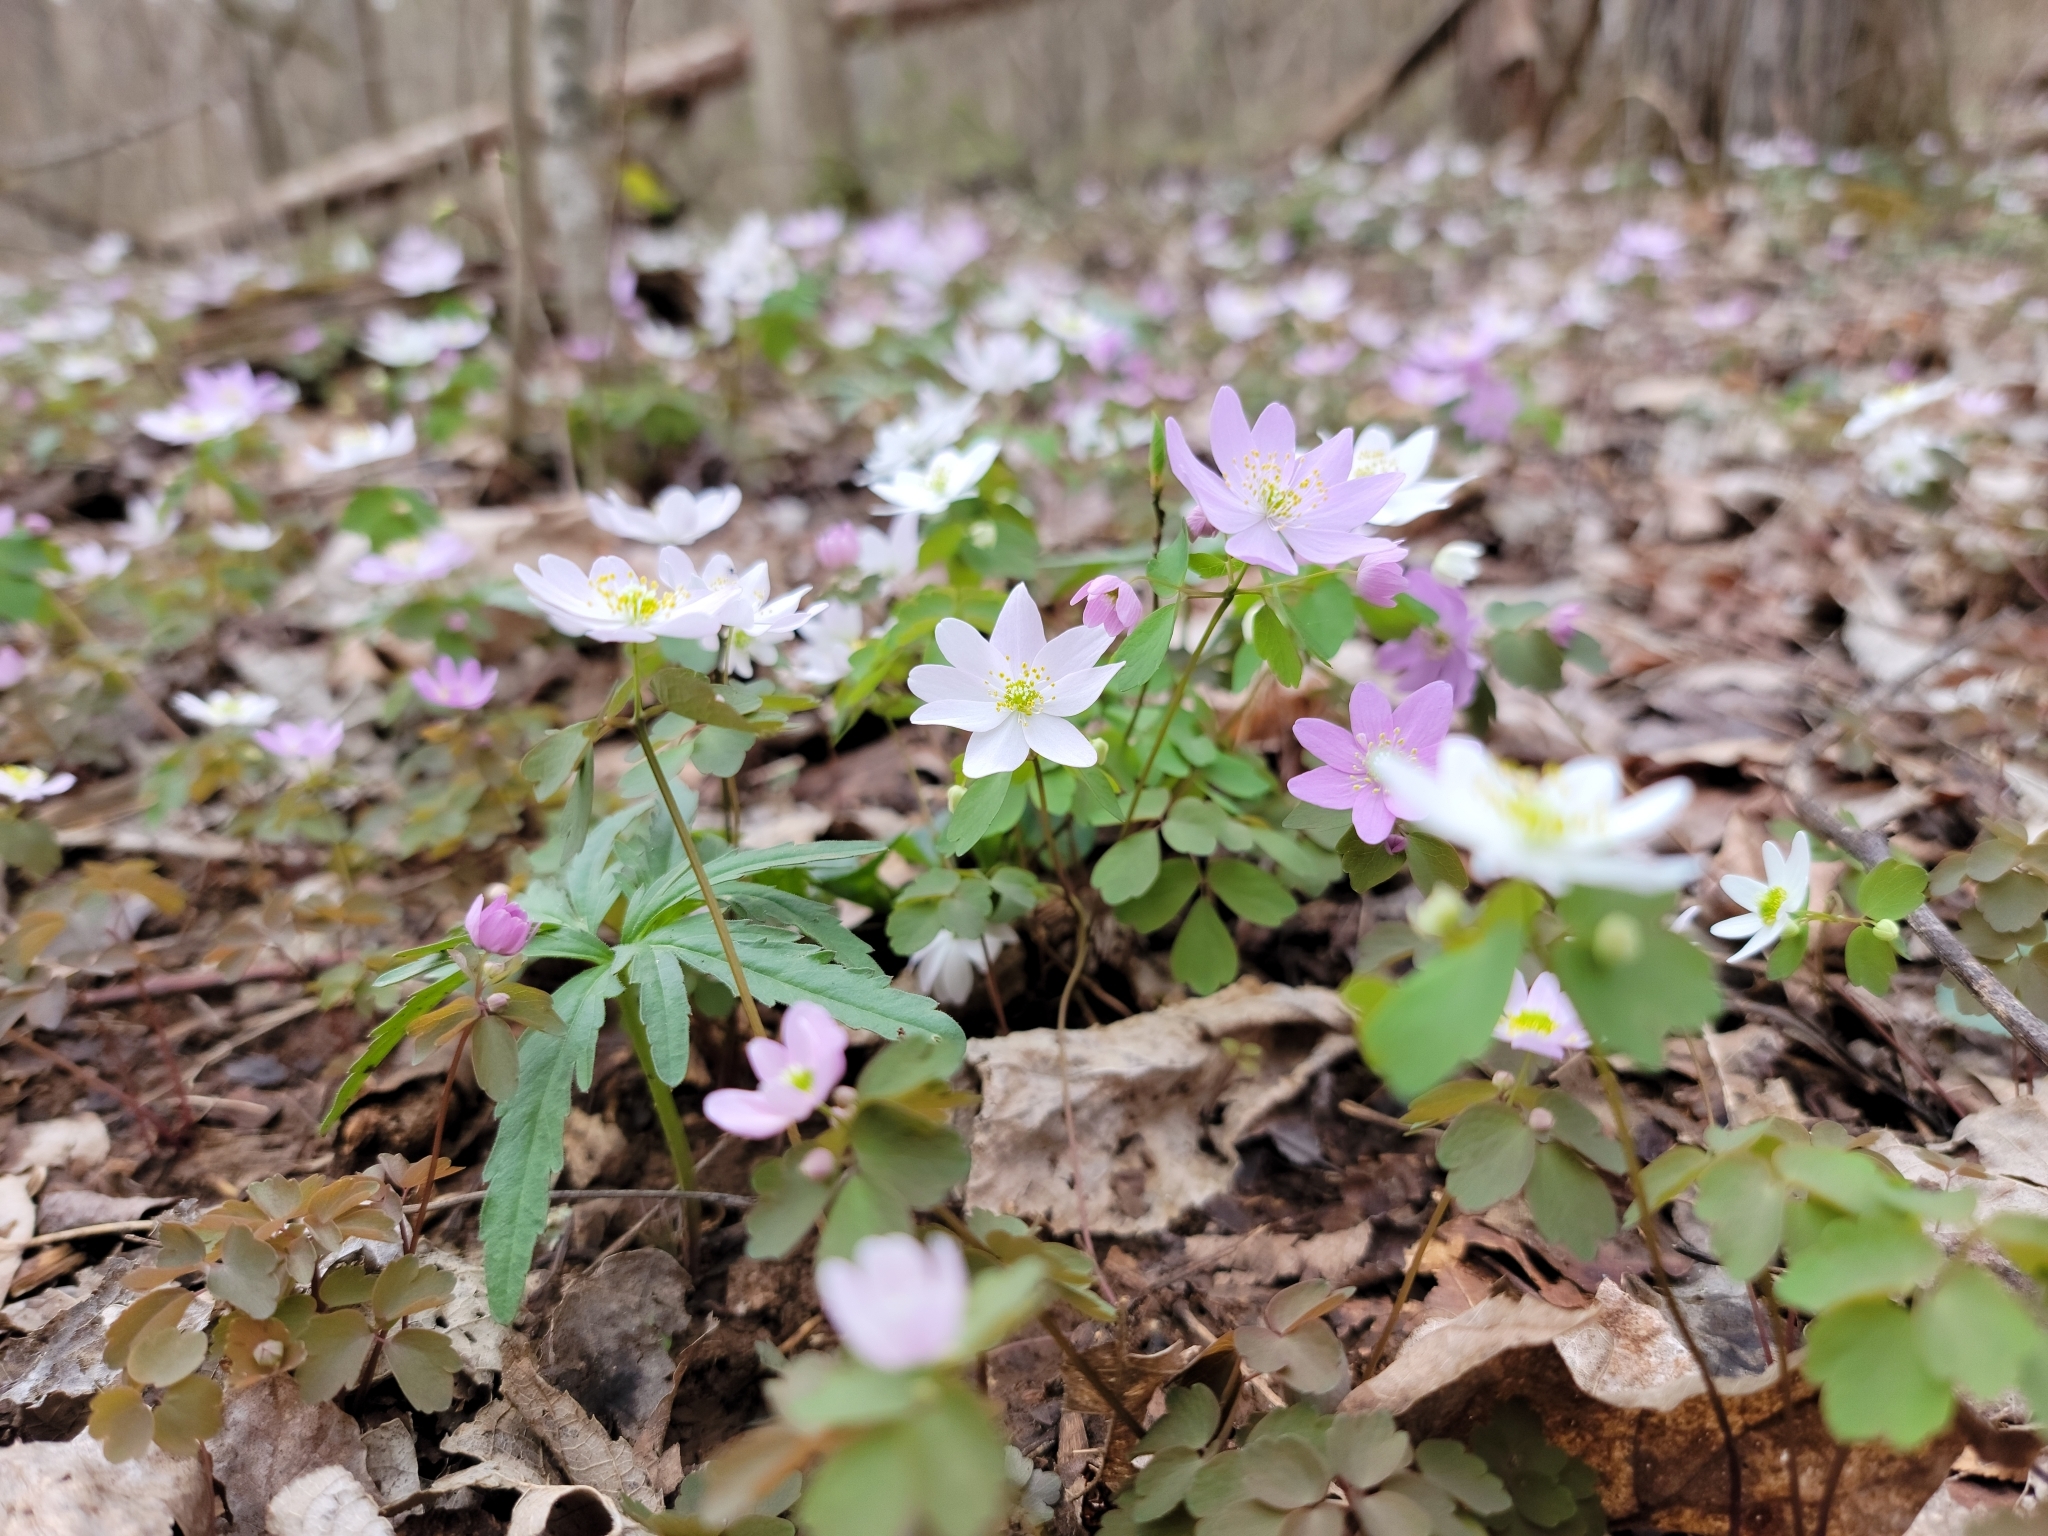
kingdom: Plantae
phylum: Tracheophyta
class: Magnoliopsida
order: Ranunculales
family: Ranunculaceae
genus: Thalictrum
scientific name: Thalictrum thalictroides
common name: Rue-anemone
